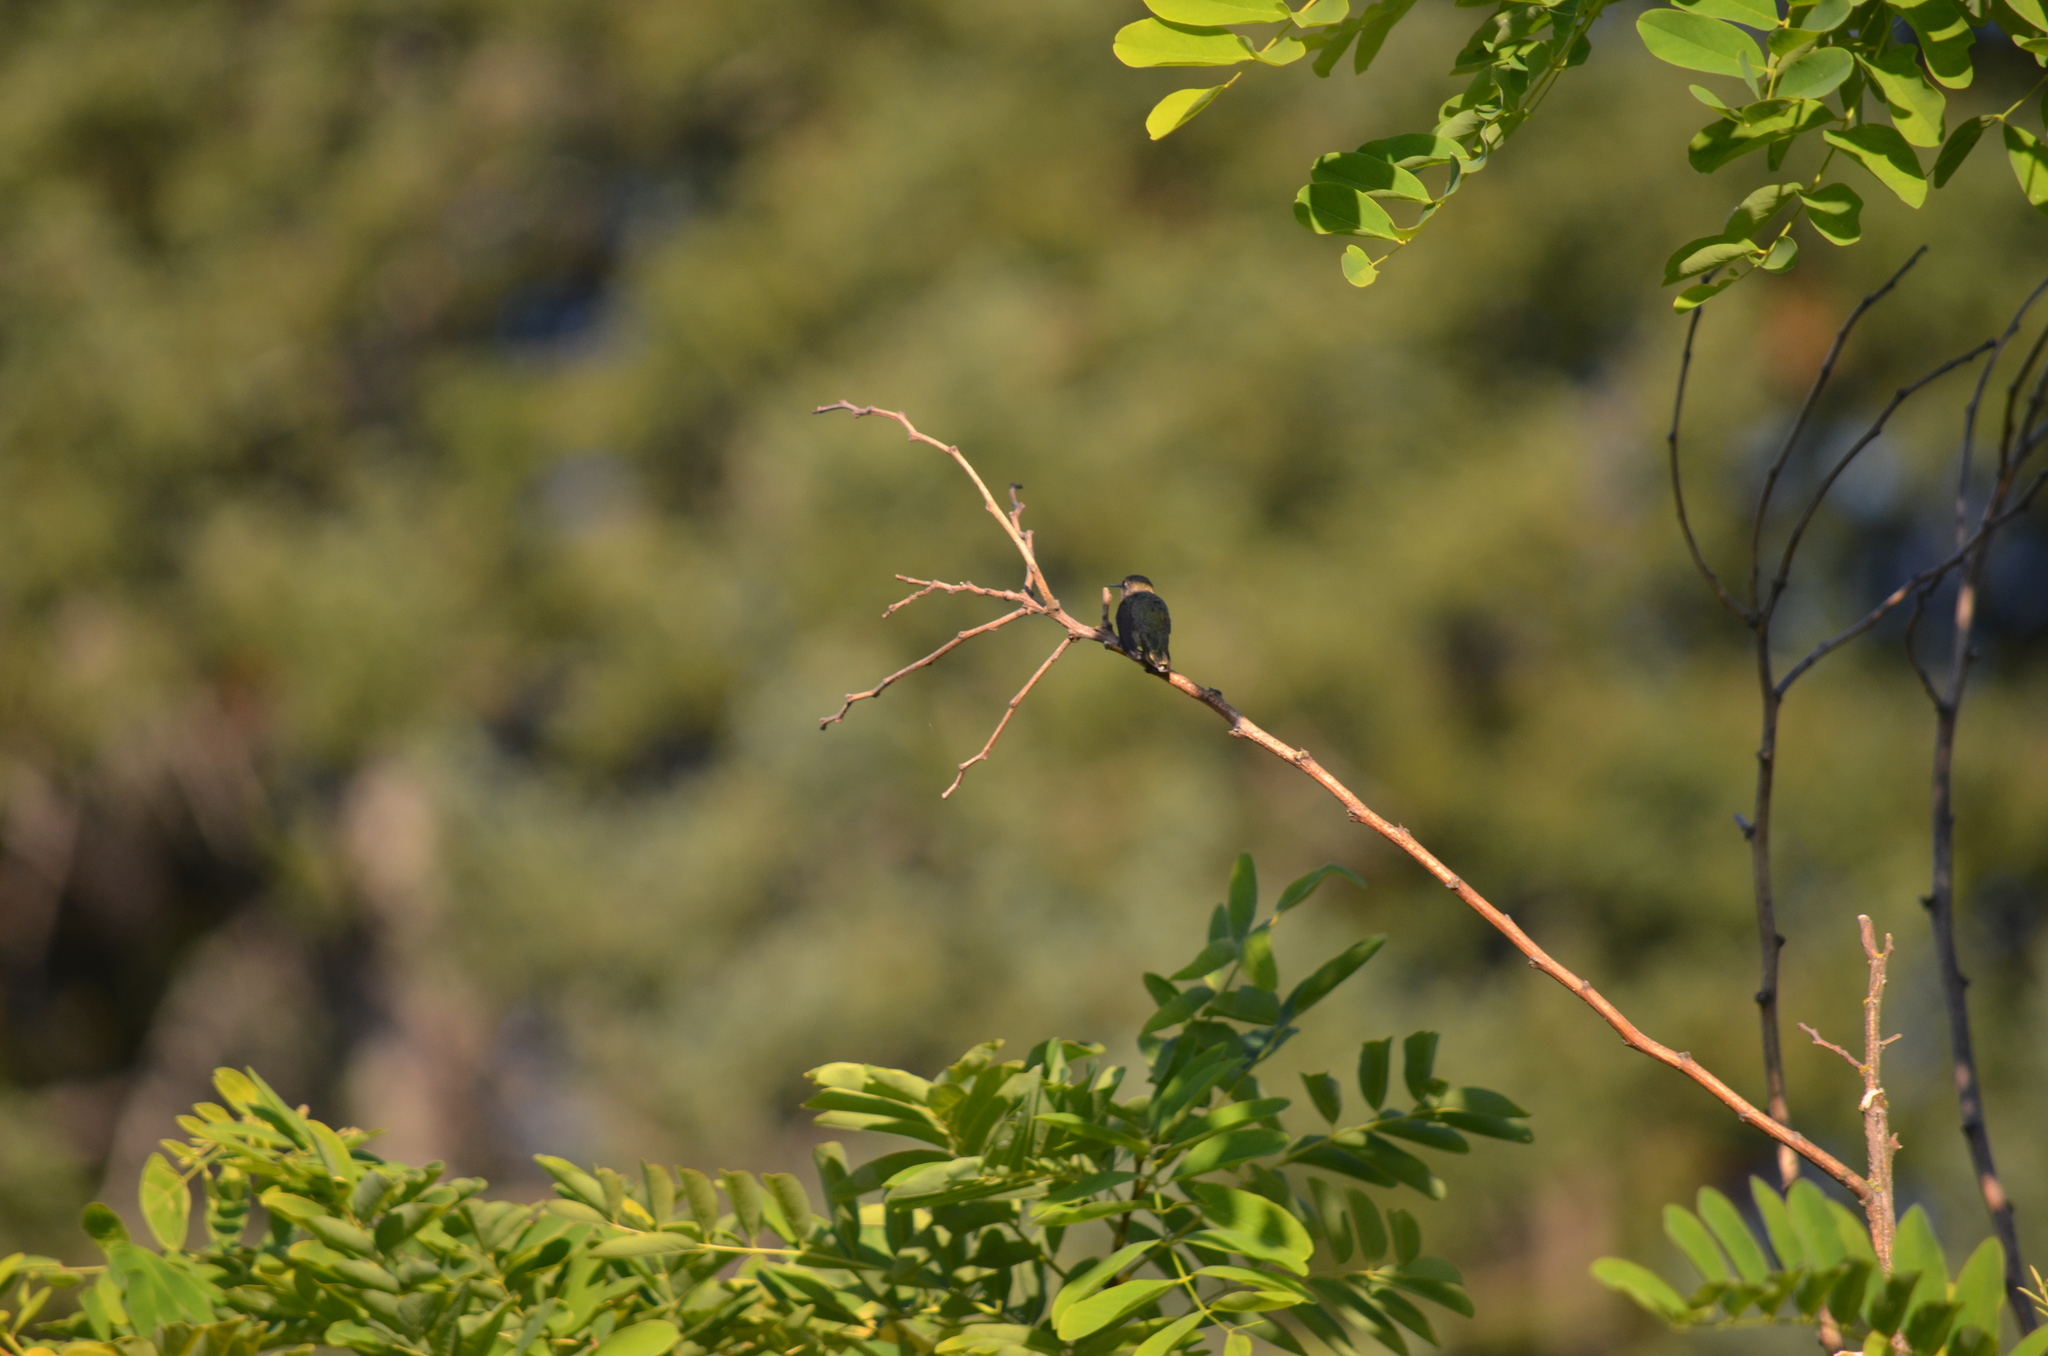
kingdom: Animalia
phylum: Chordata
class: Aves
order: Apodiformes
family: Trochilidae
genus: Calypte
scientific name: Calypte anna
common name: Anna's hummingbird
